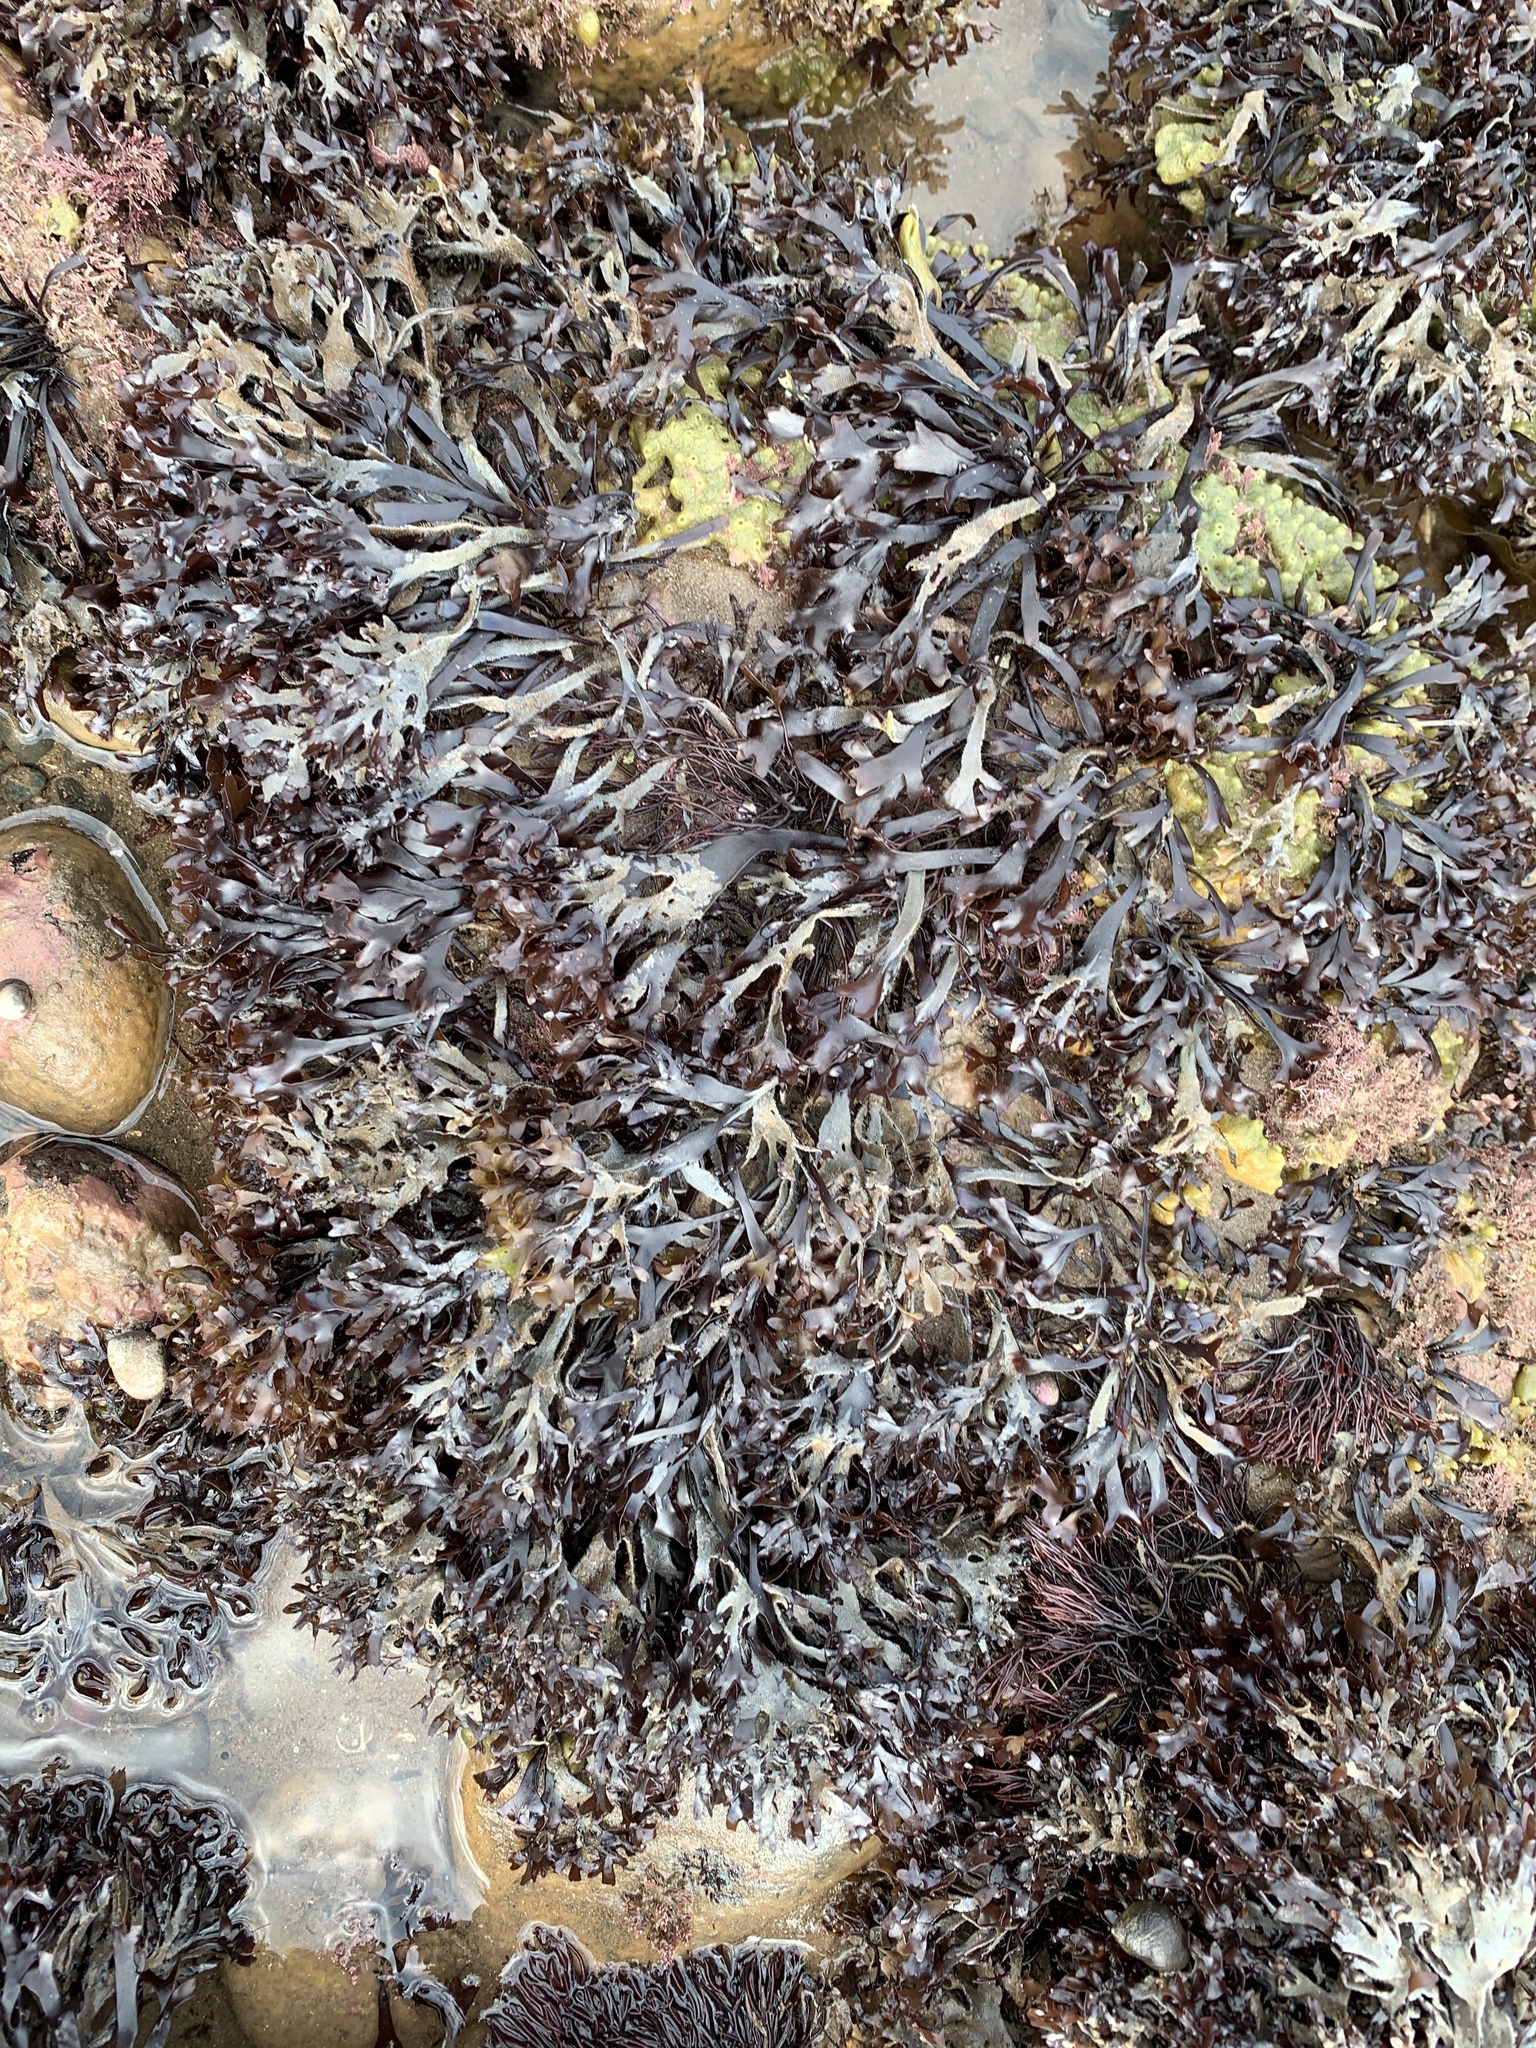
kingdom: Plantae
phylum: Rhodophyta
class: Florideophyceae
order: Gigartinales
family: Gigartinaceae
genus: Chondrus
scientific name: Chondrus crispus
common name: Carrageen
